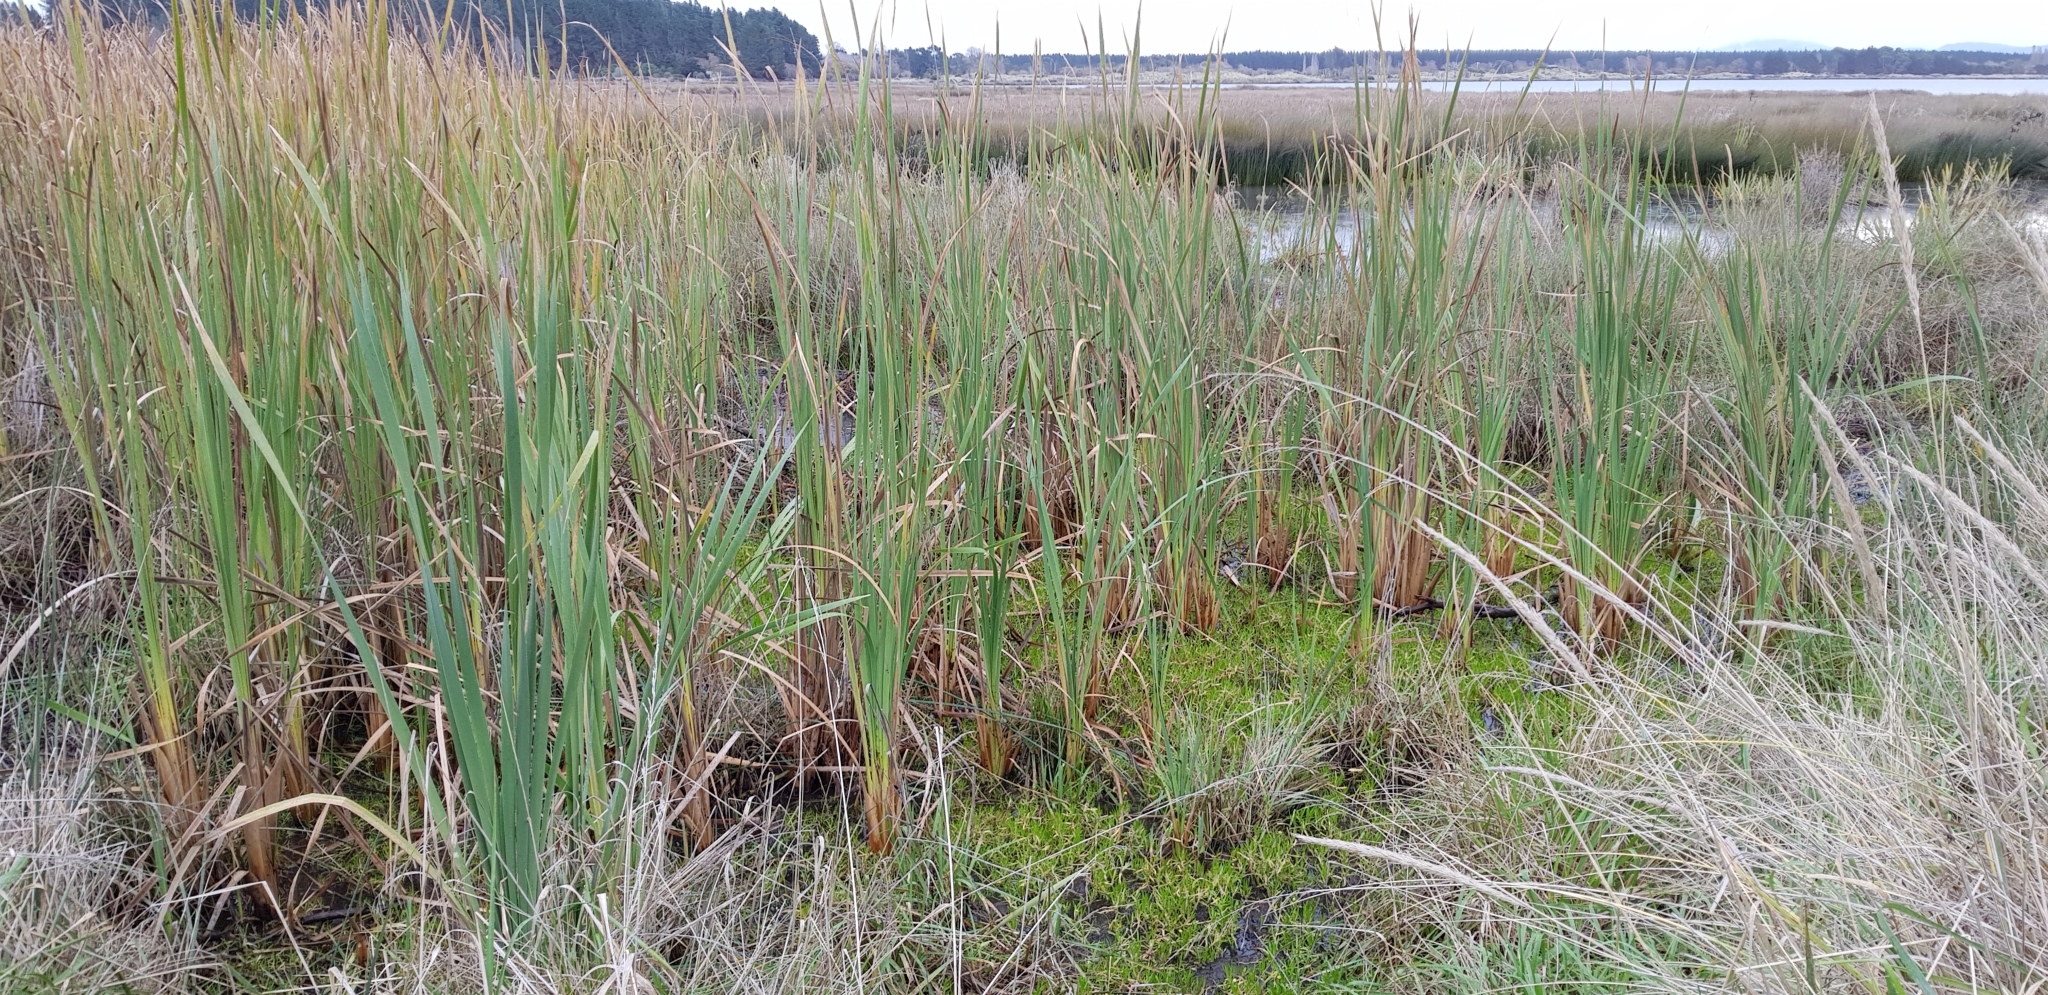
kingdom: Plantae
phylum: Tracheophyta
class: Liliopsida
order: Poales
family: Typhaceae
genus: Typha
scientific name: Typha orientalis
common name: Bullrush
